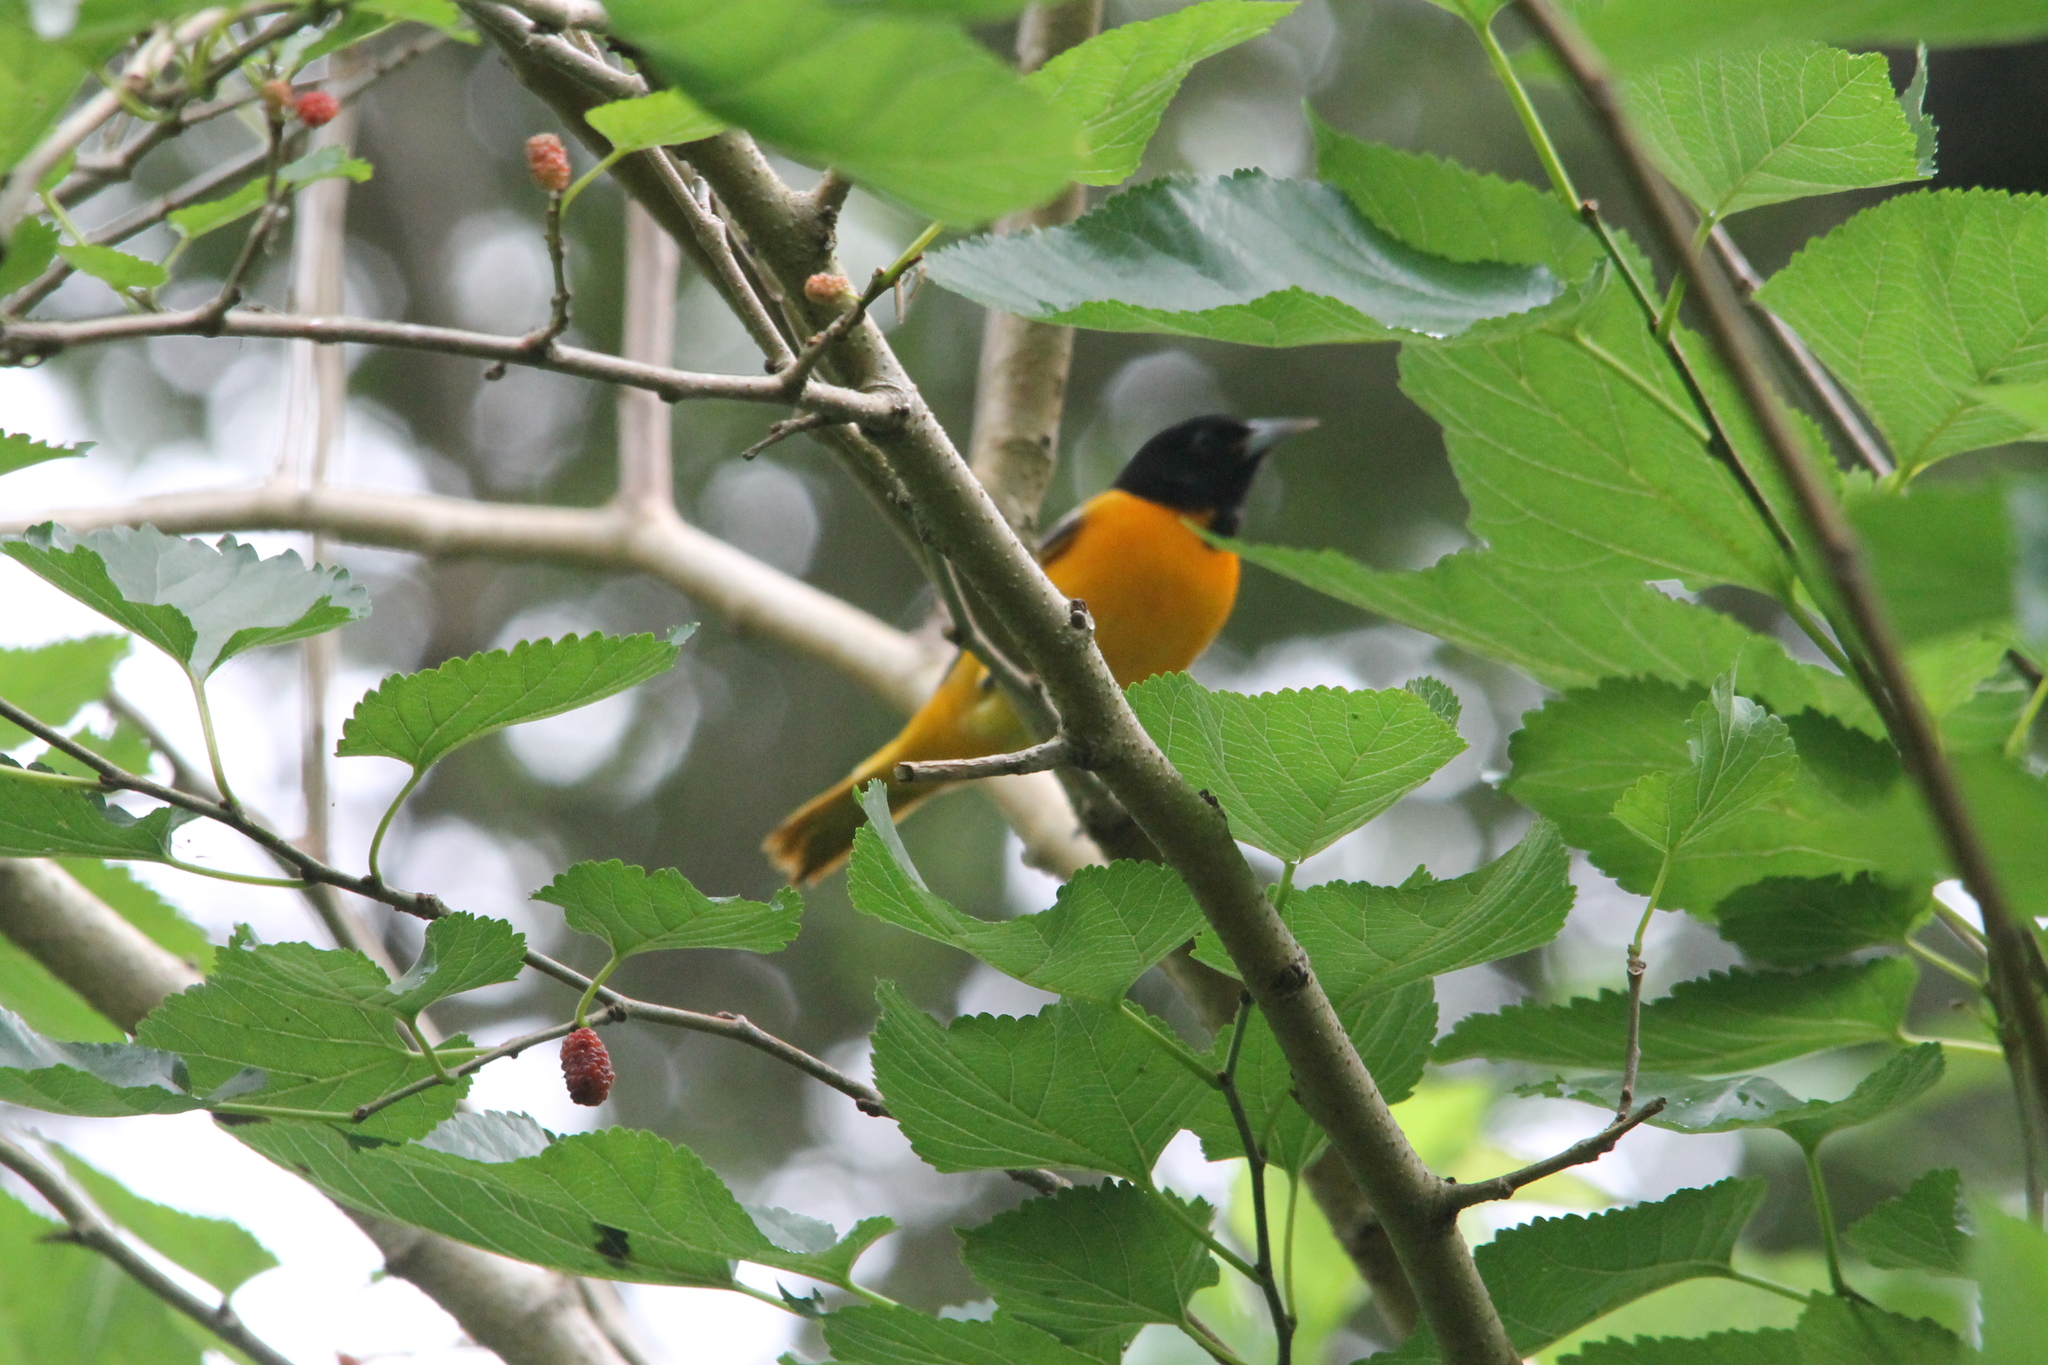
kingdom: Animalia
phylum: Chordata
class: Aves
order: Passeriformes
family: Icteridae
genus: Icterus
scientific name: Icterus galbula
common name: Baltimore oriole
